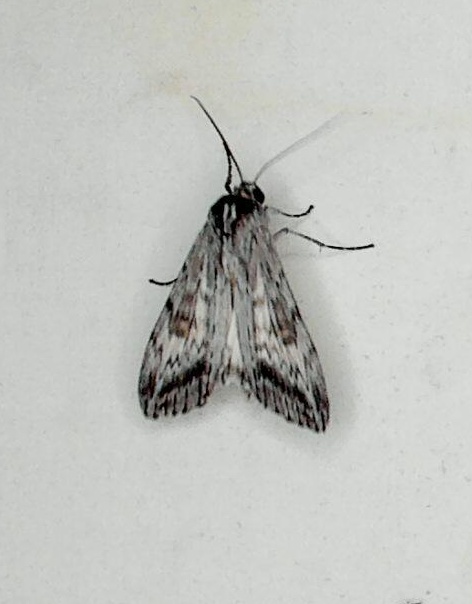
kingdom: Animalia
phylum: Arthropoda
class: Insecta
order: Lepidoptera
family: Geometridae
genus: Capusa
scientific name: Capusa senilis
